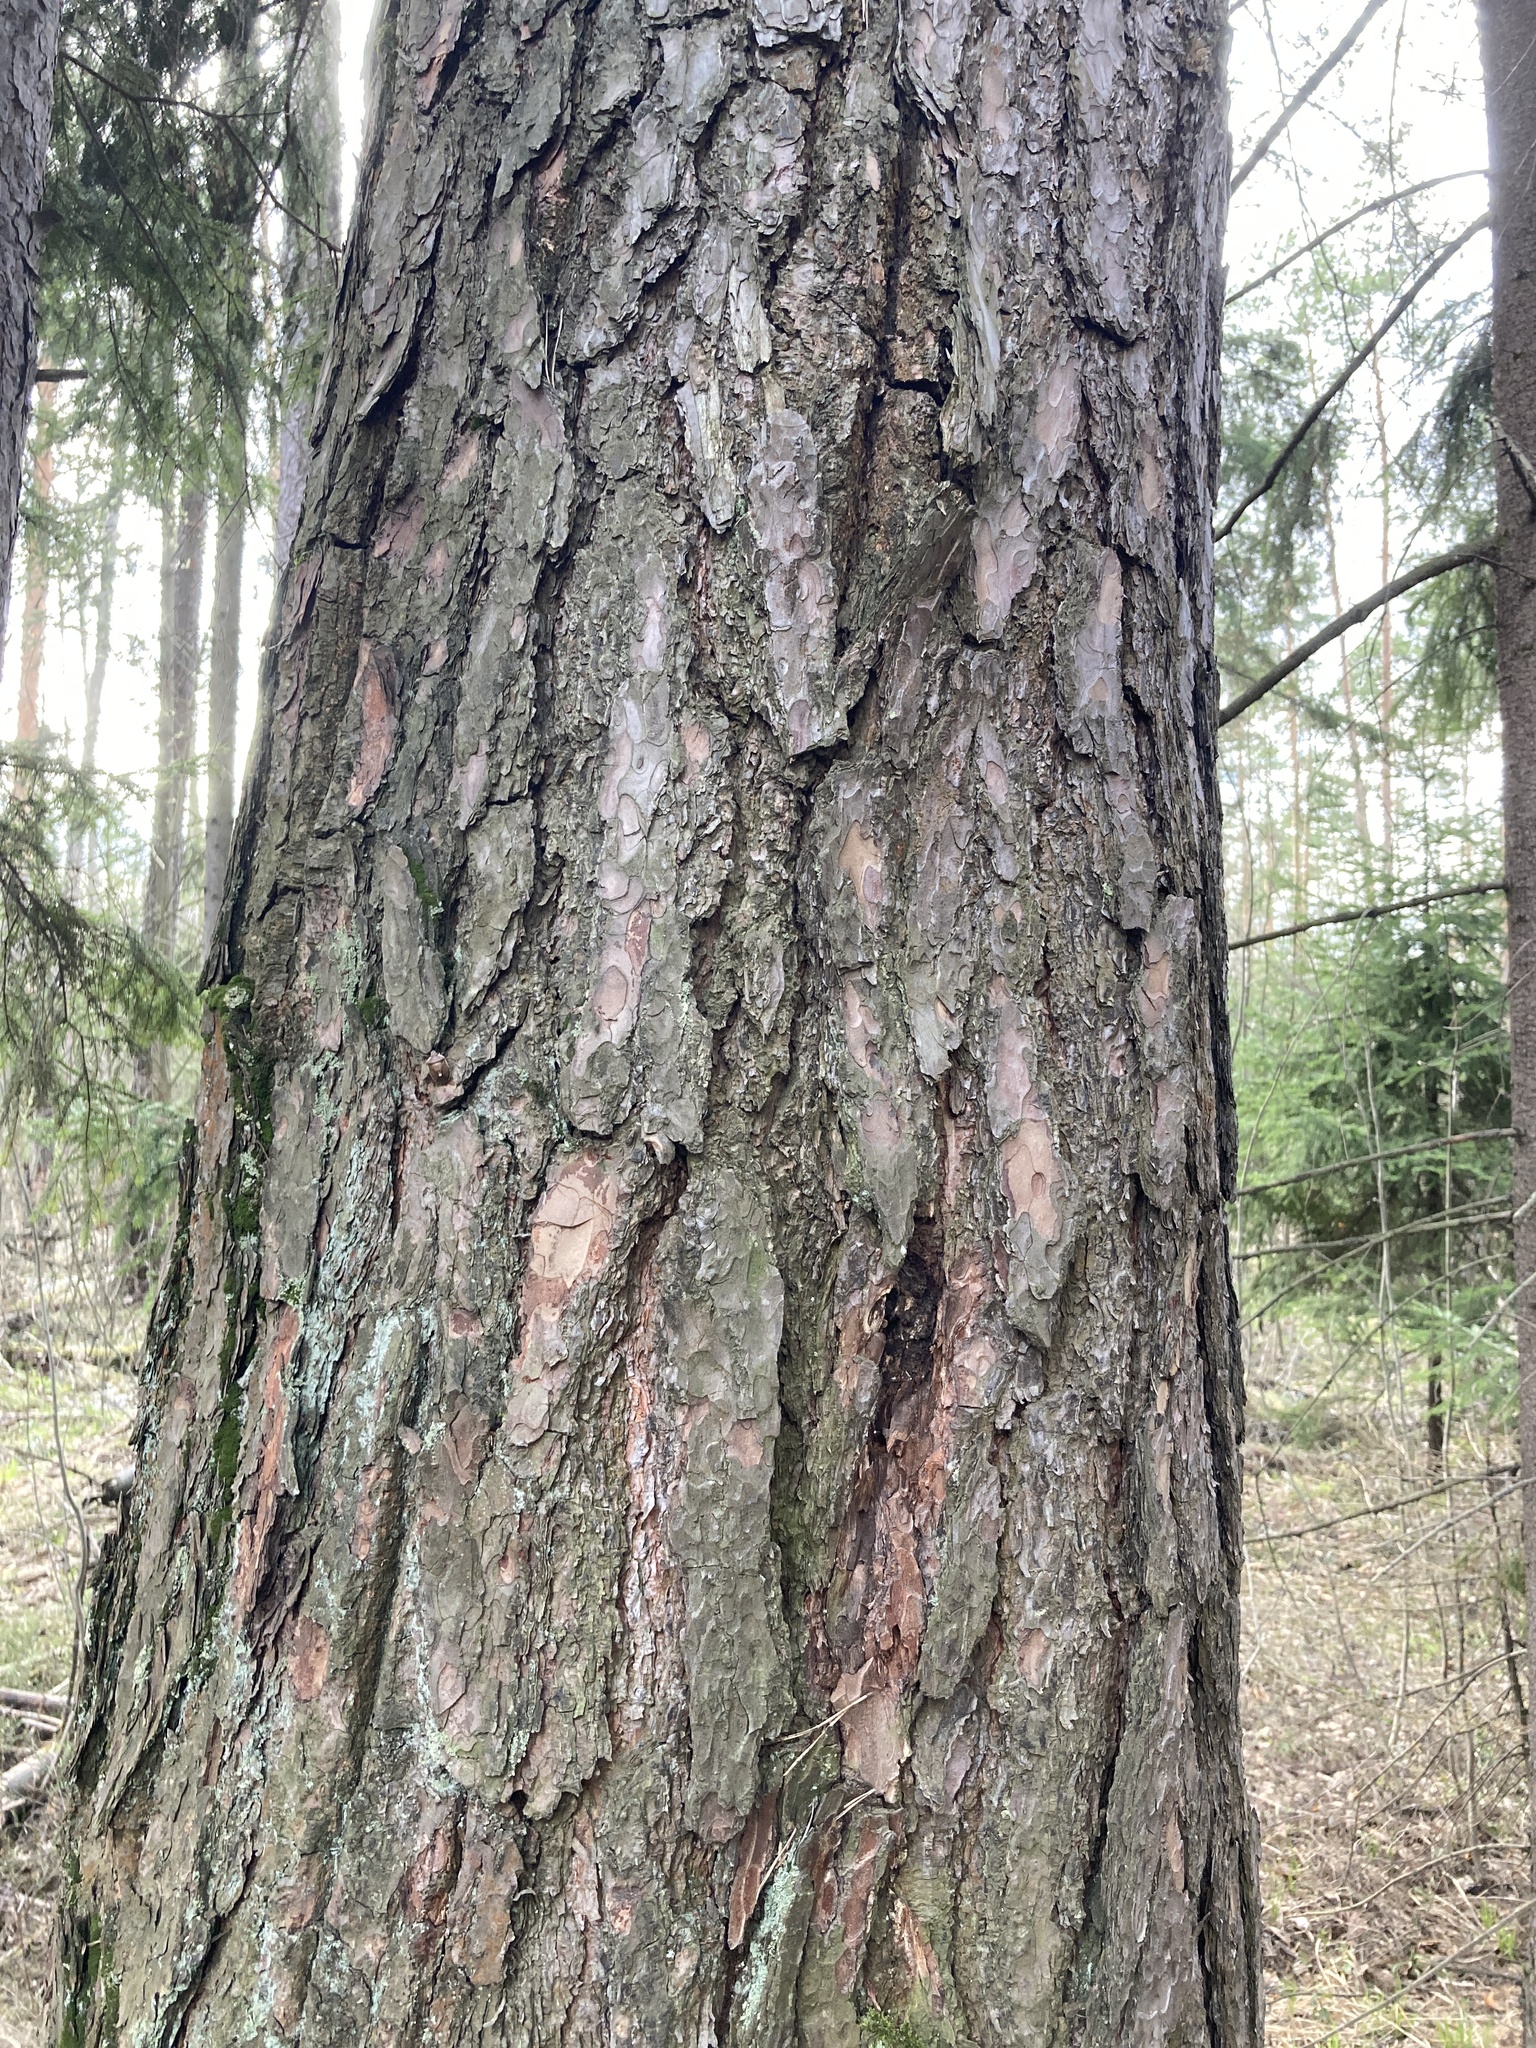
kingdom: Plantae
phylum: Tracheophyta
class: Pinopsida
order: Pinales
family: Pinaceae
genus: Pinus
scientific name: Pinus sylvestris
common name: Scots pine
